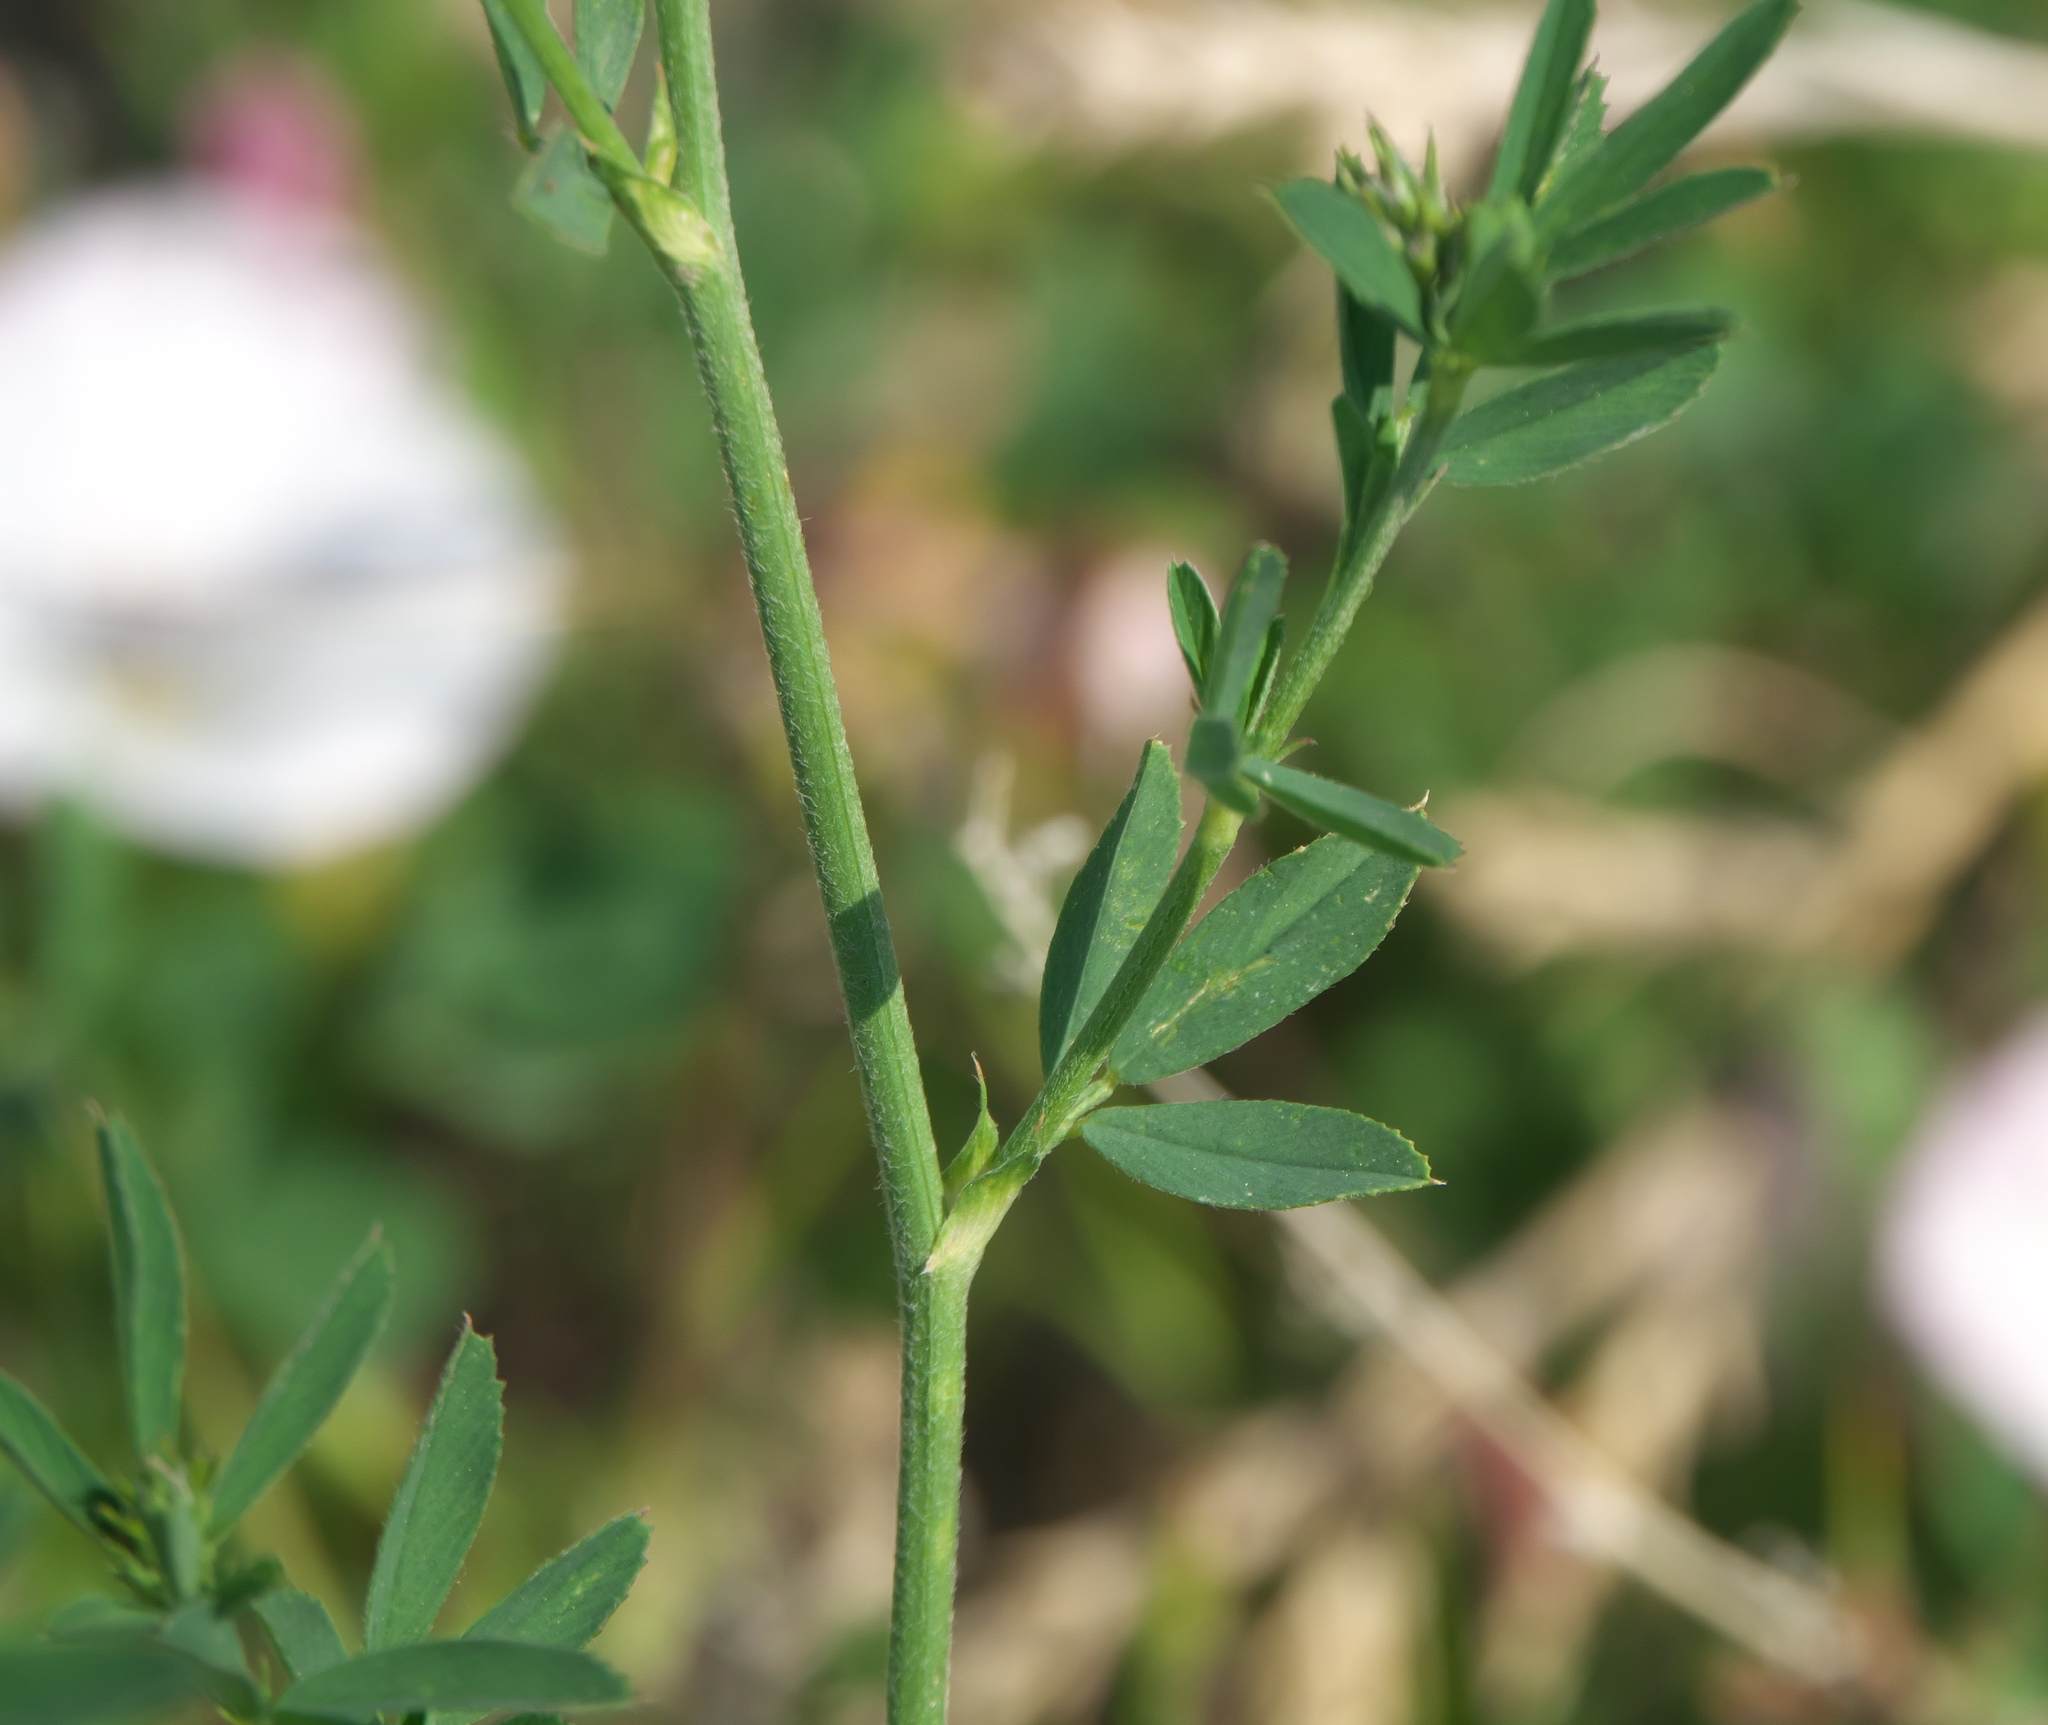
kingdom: Plantae
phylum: Tracheophyta
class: Magnoliopsida
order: Fabales
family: Fabaceae
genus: Medicago
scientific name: Medicago sativa
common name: Alfalfa
